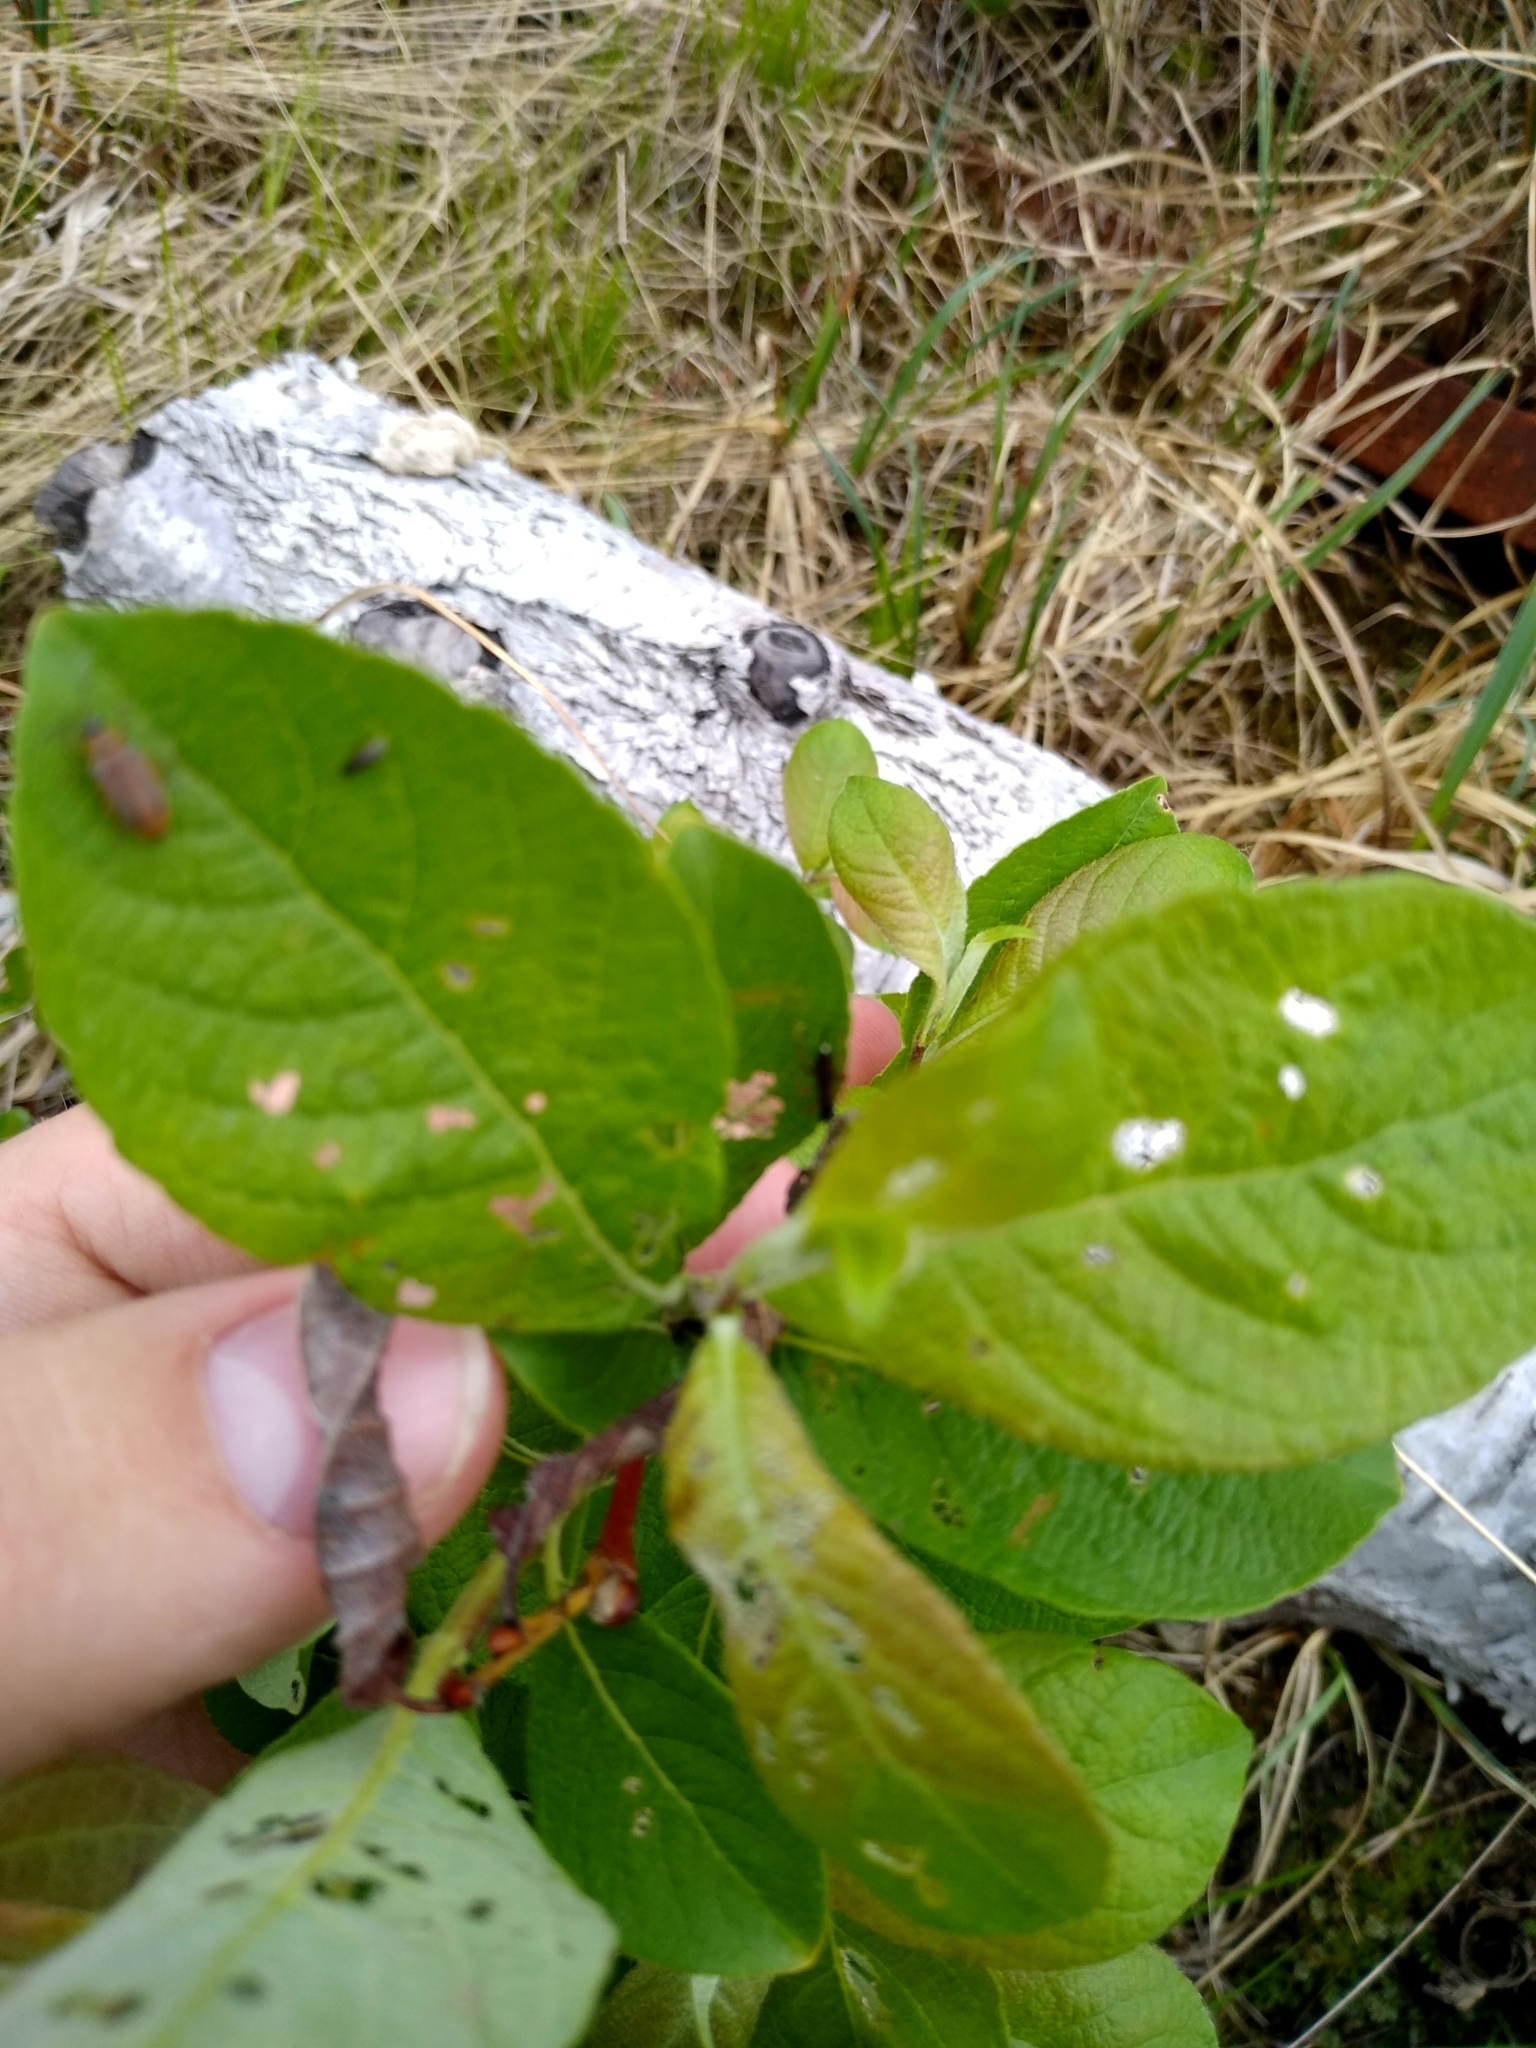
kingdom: Plantae
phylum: Tracheophyta
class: Magnoliopsida
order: Malpighiales
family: Salicaceae
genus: Salix
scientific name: Salix caprea
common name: Goat willow
